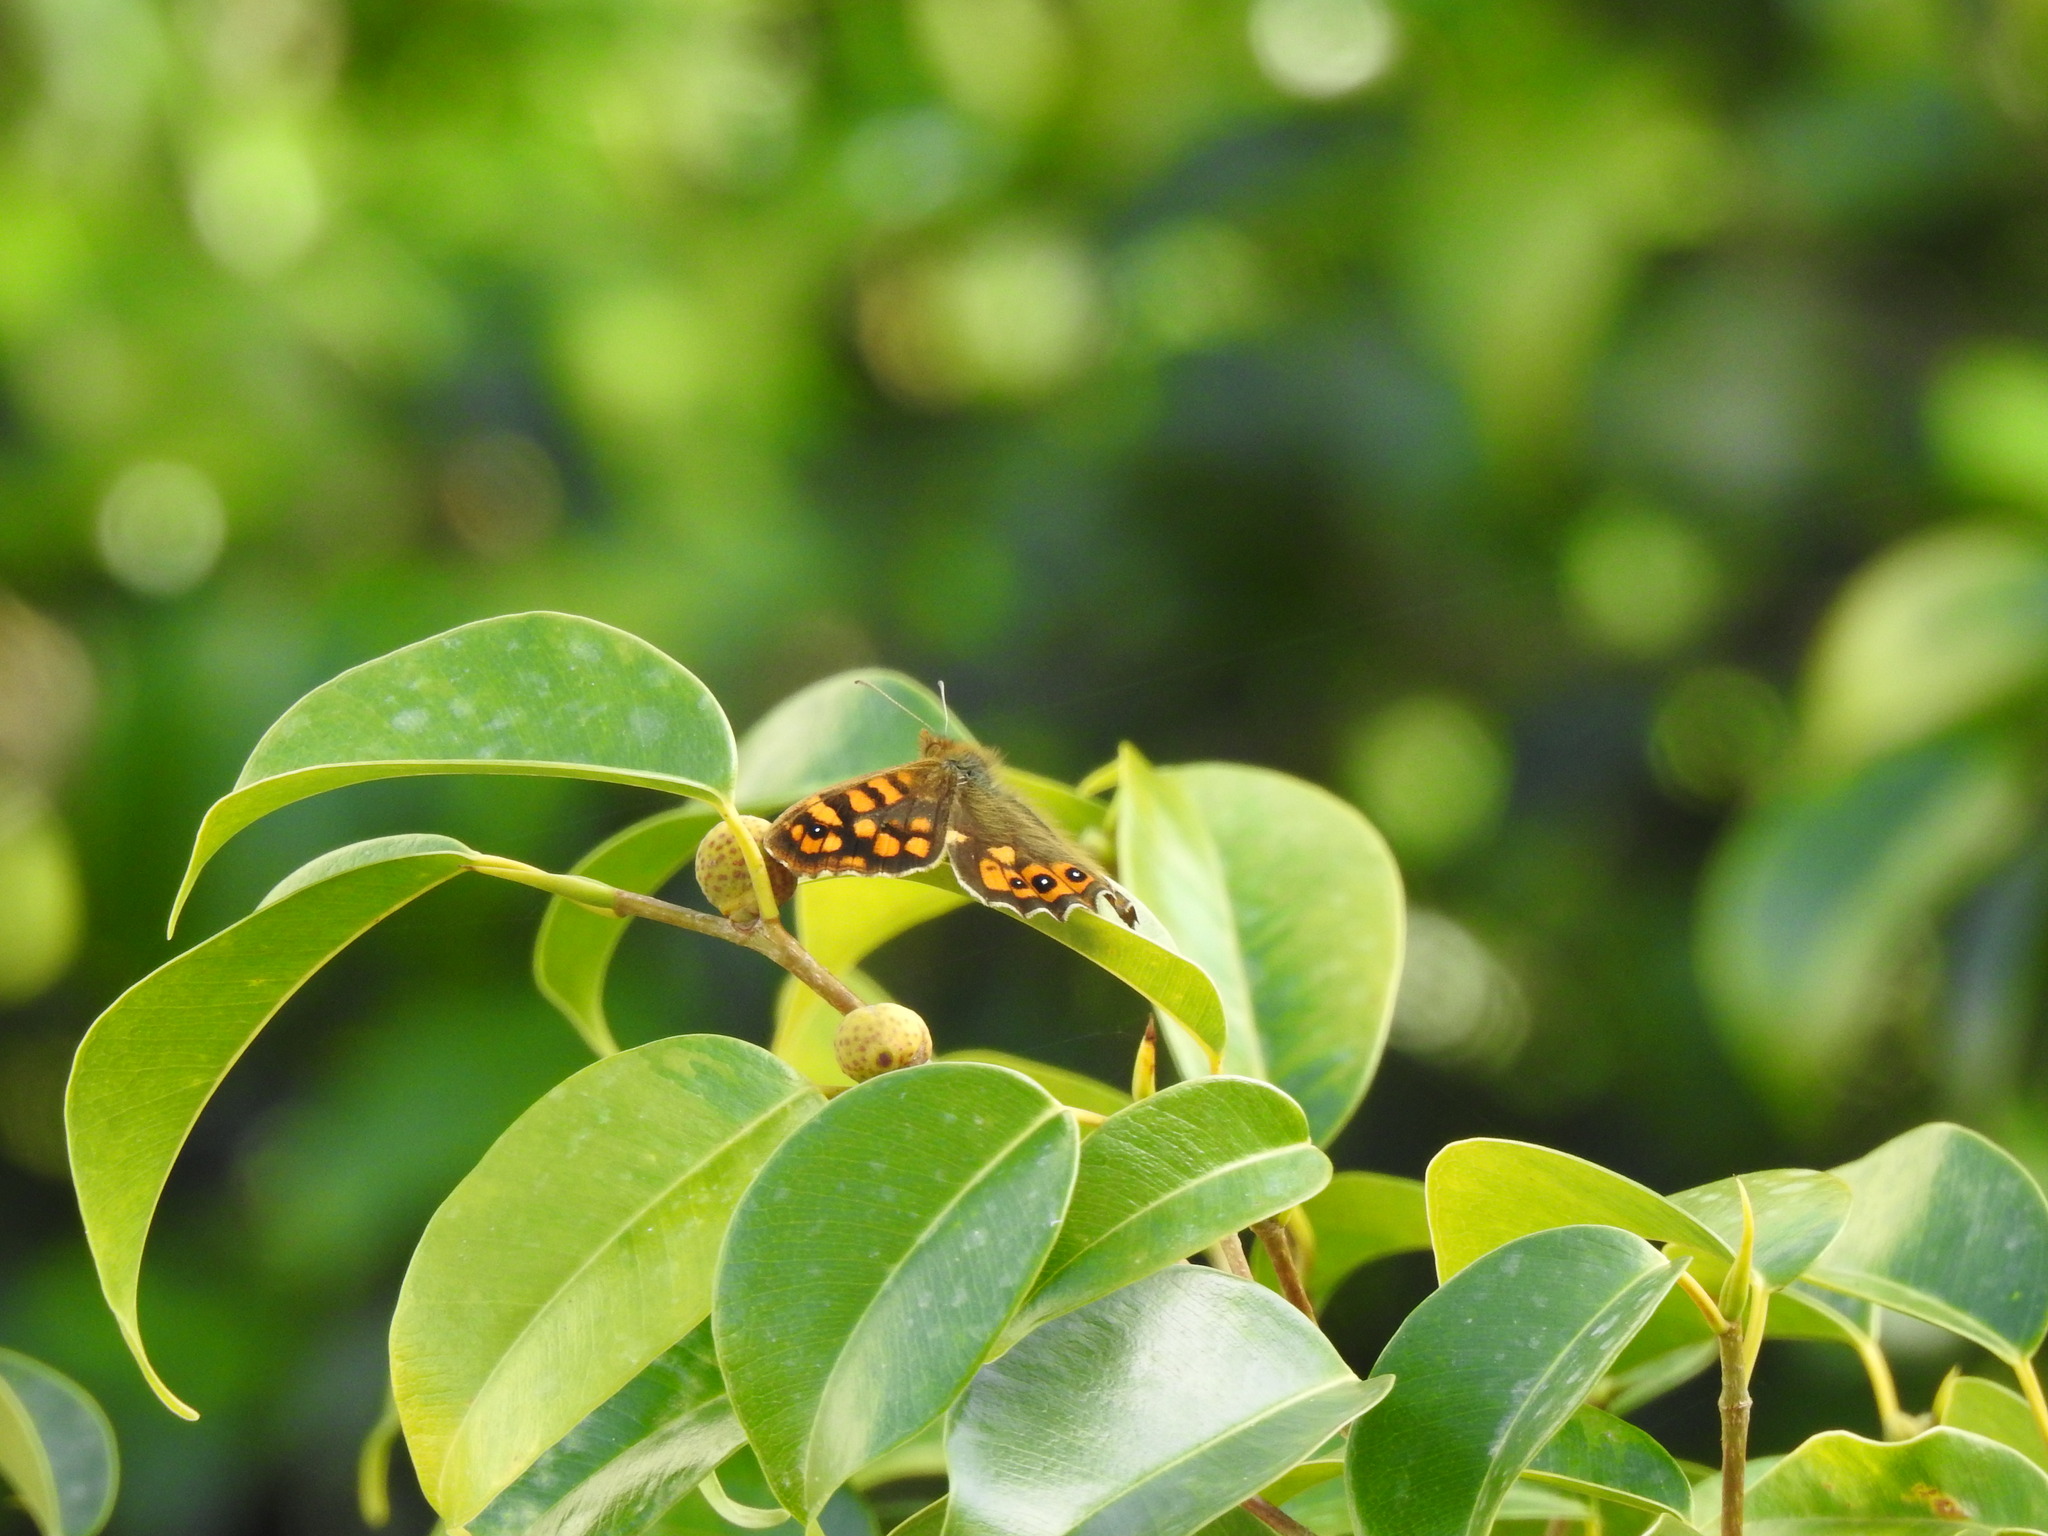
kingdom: Animalia
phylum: Arthropoda
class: Insecta
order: Lepidoptera
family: Nymphalidae
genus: Pararge
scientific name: Pararge aegeria
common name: Speckled wood
